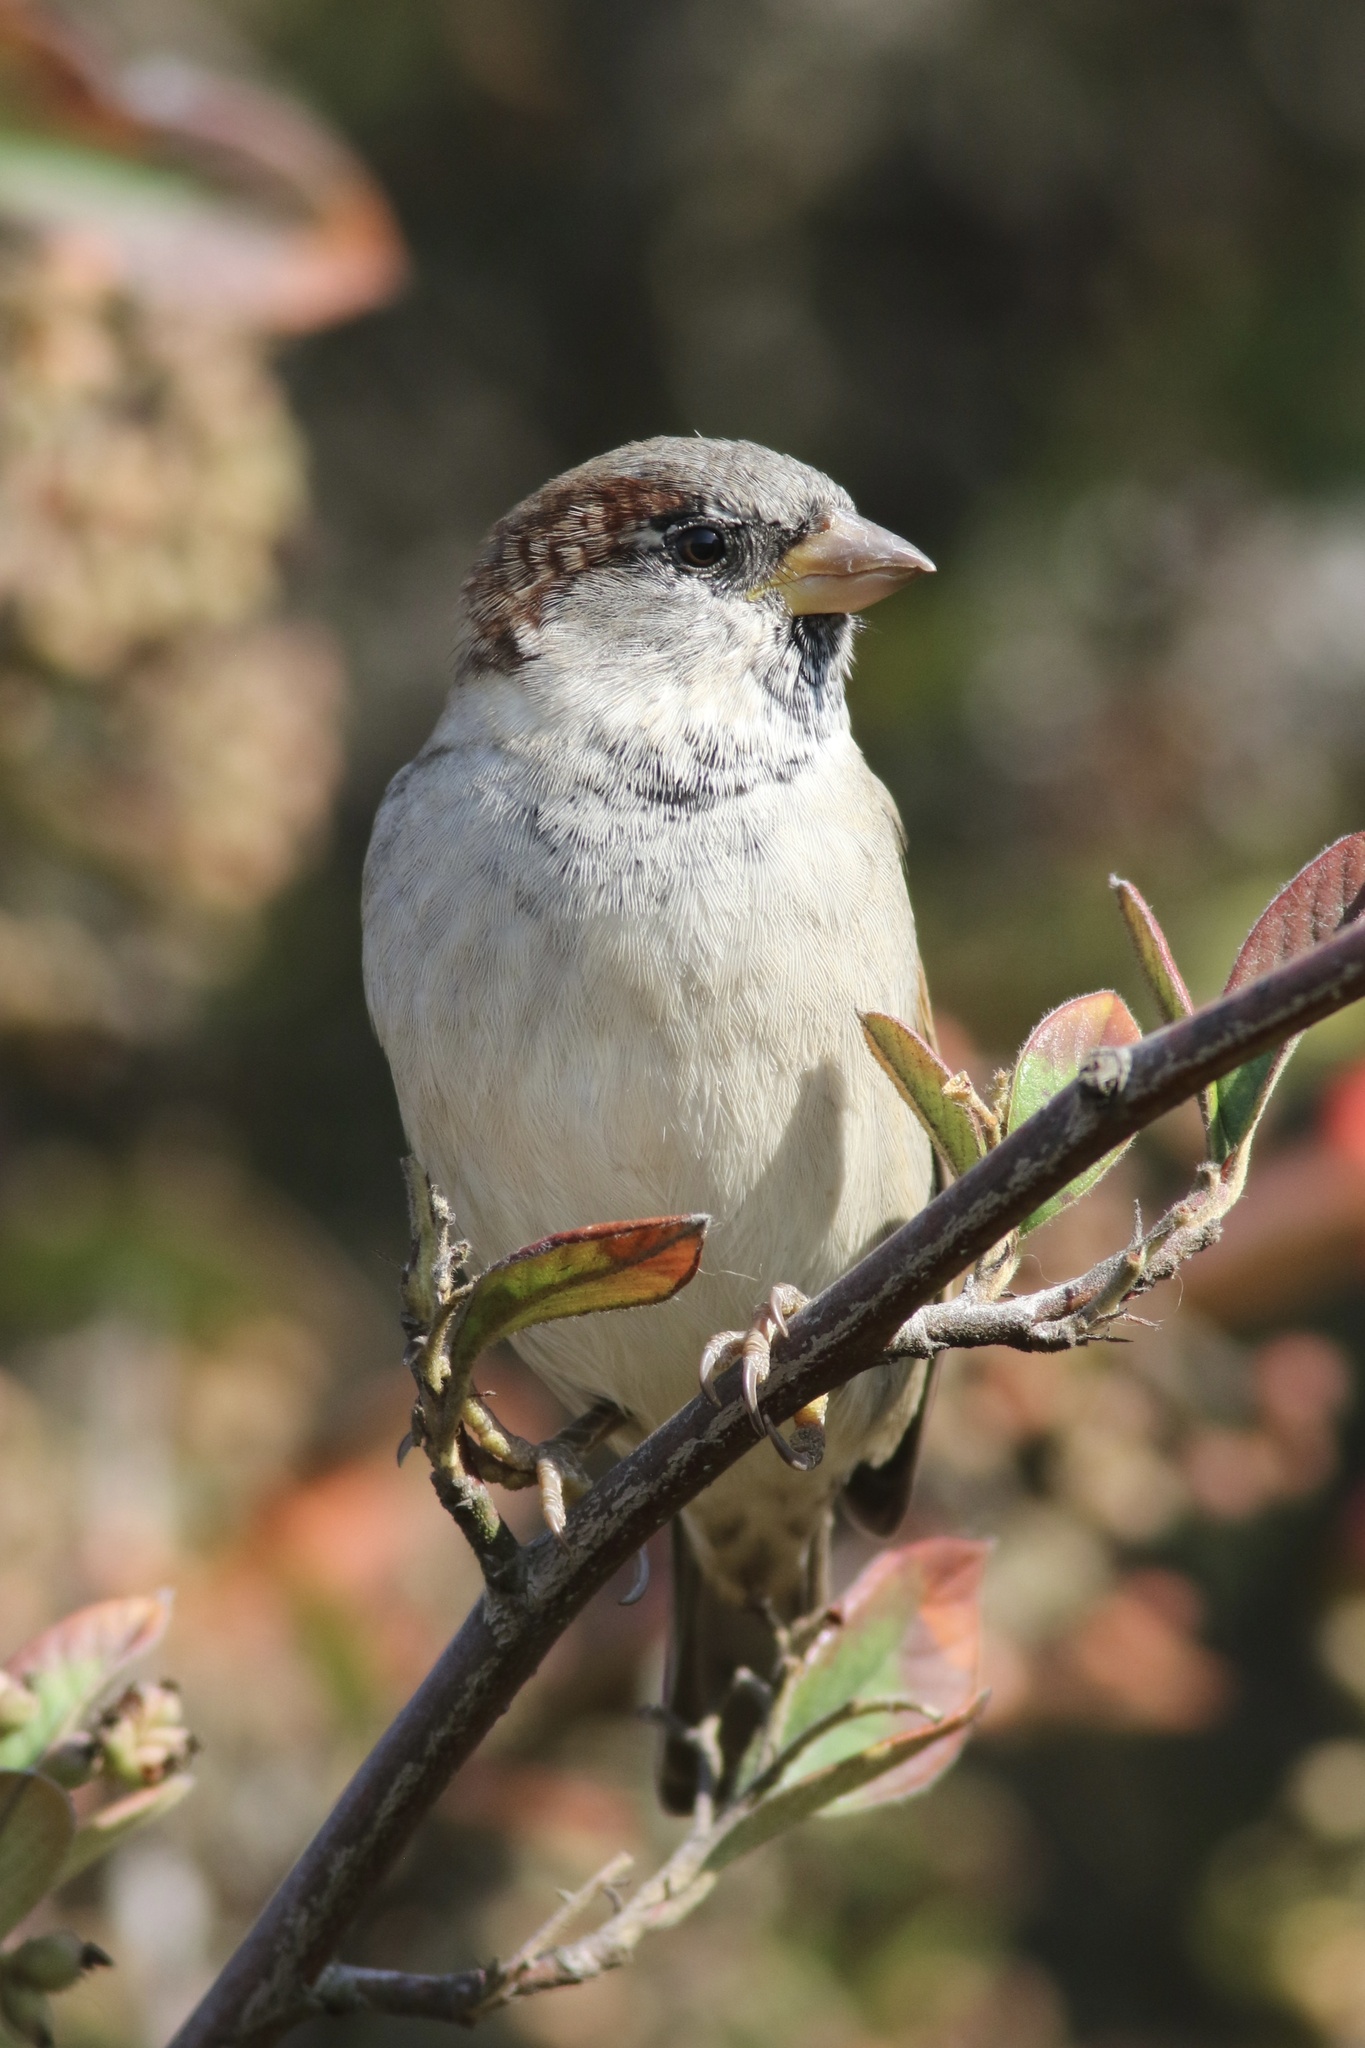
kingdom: Animalia
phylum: Chordata
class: Aves
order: Passeriformes
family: Passeridae
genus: Passer
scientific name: Passer domesticus
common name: House sparrow
